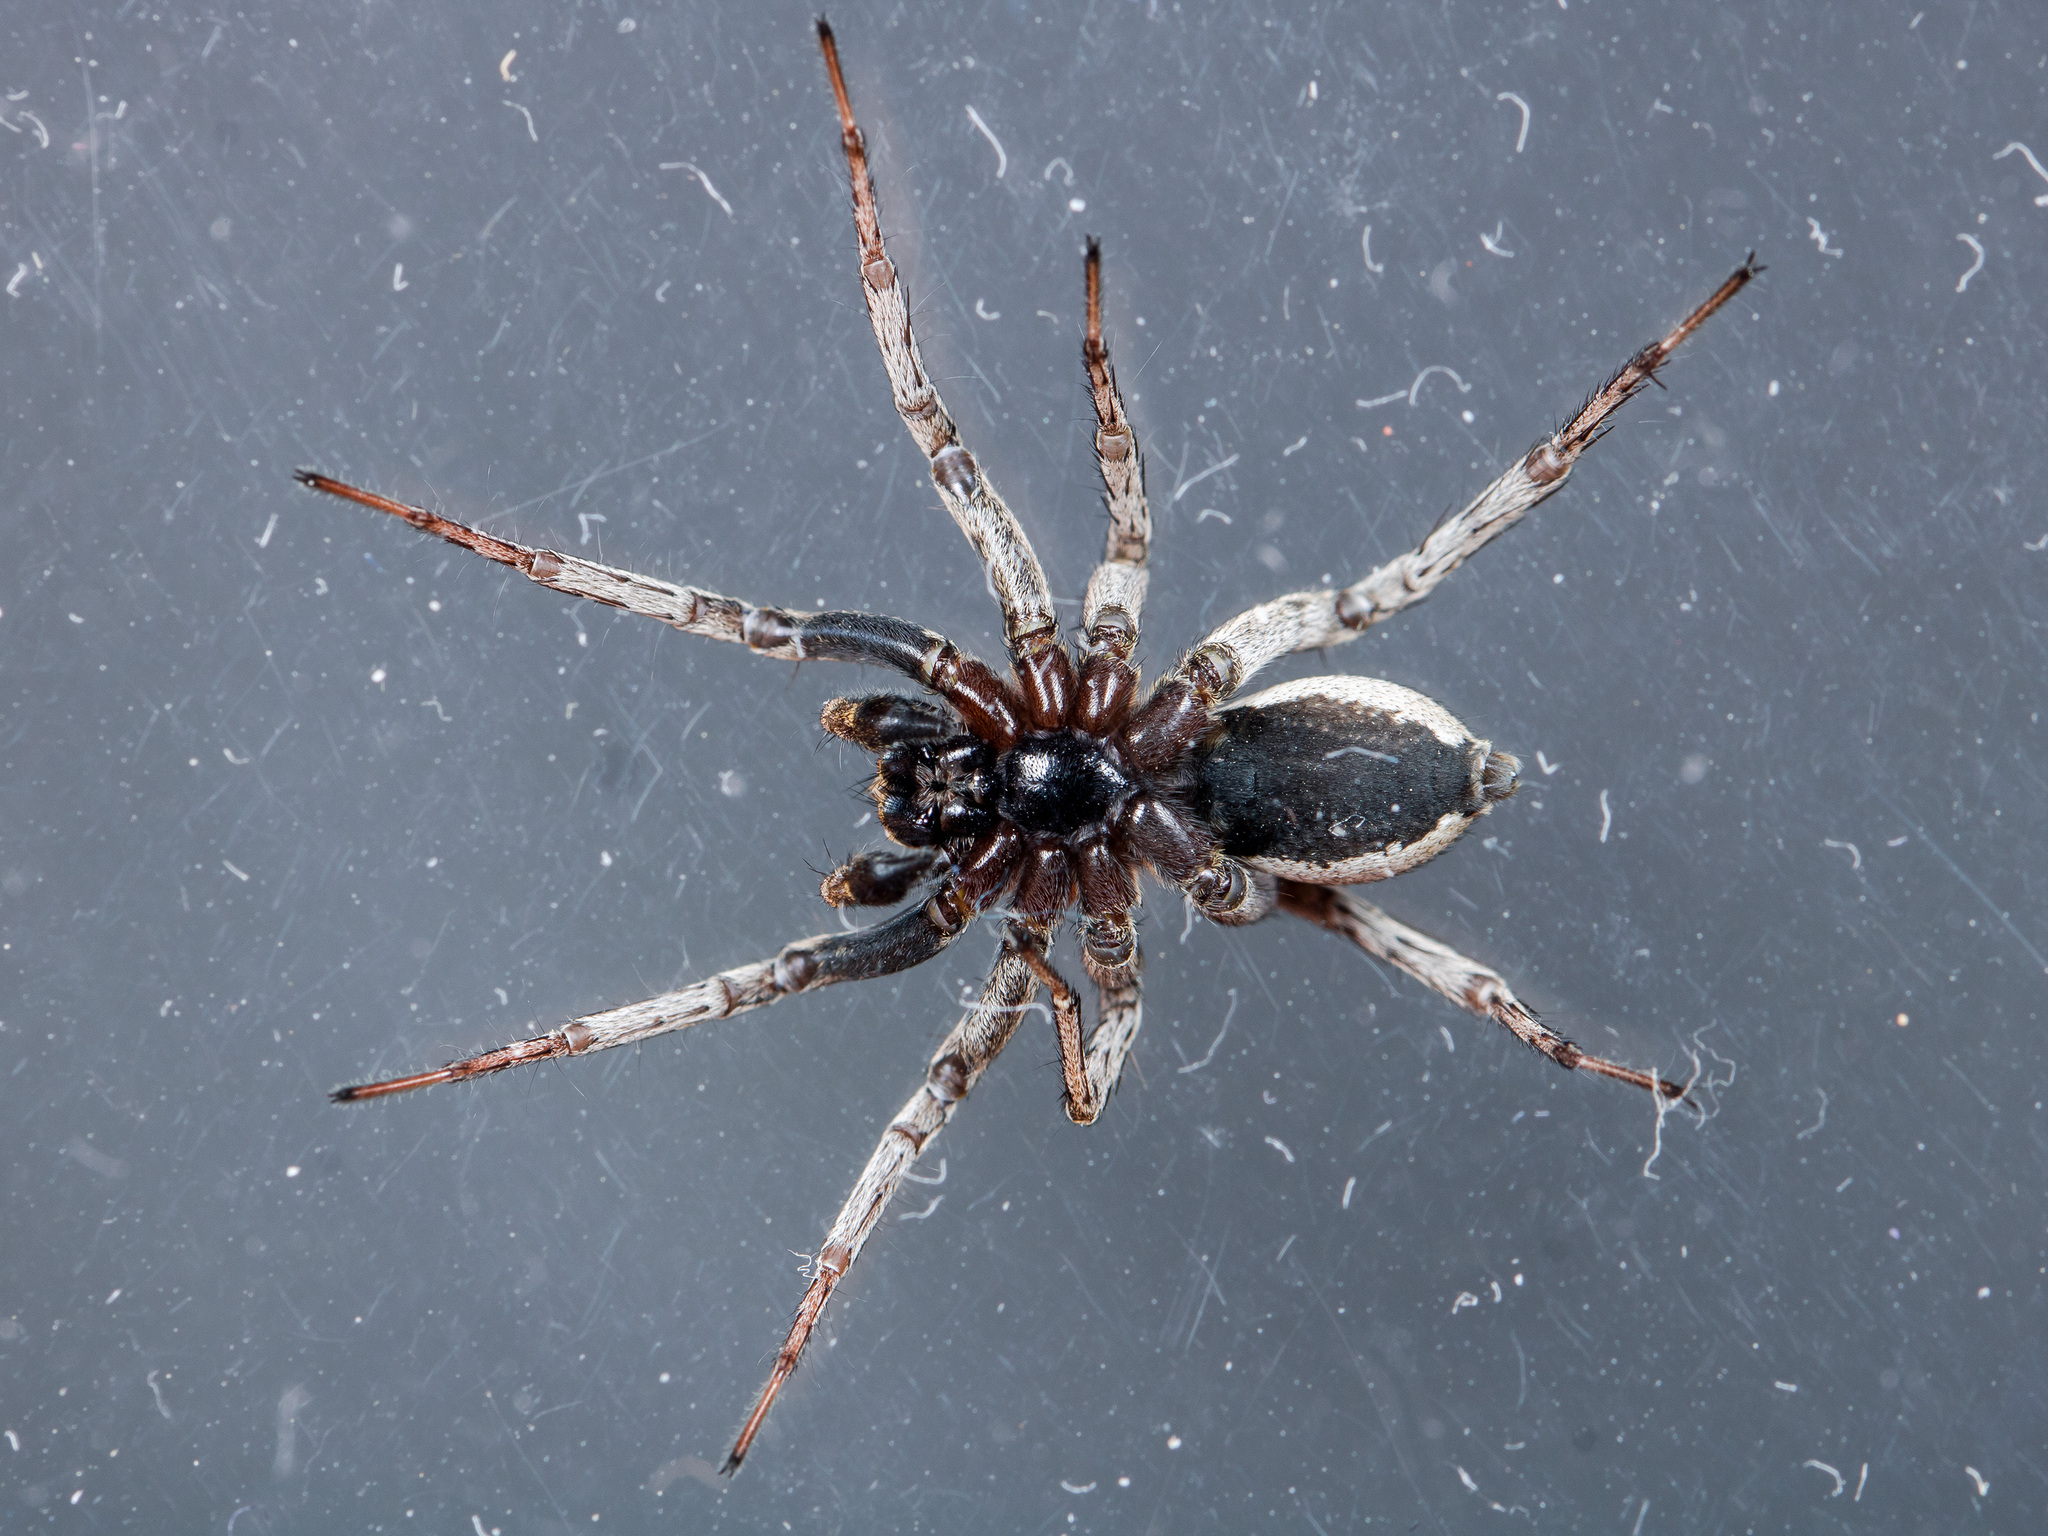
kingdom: Animalia
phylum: Arthropoda
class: Arachnida
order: Araneae
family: Lycosidae
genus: Alopecosa
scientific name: Alopecosa hui
